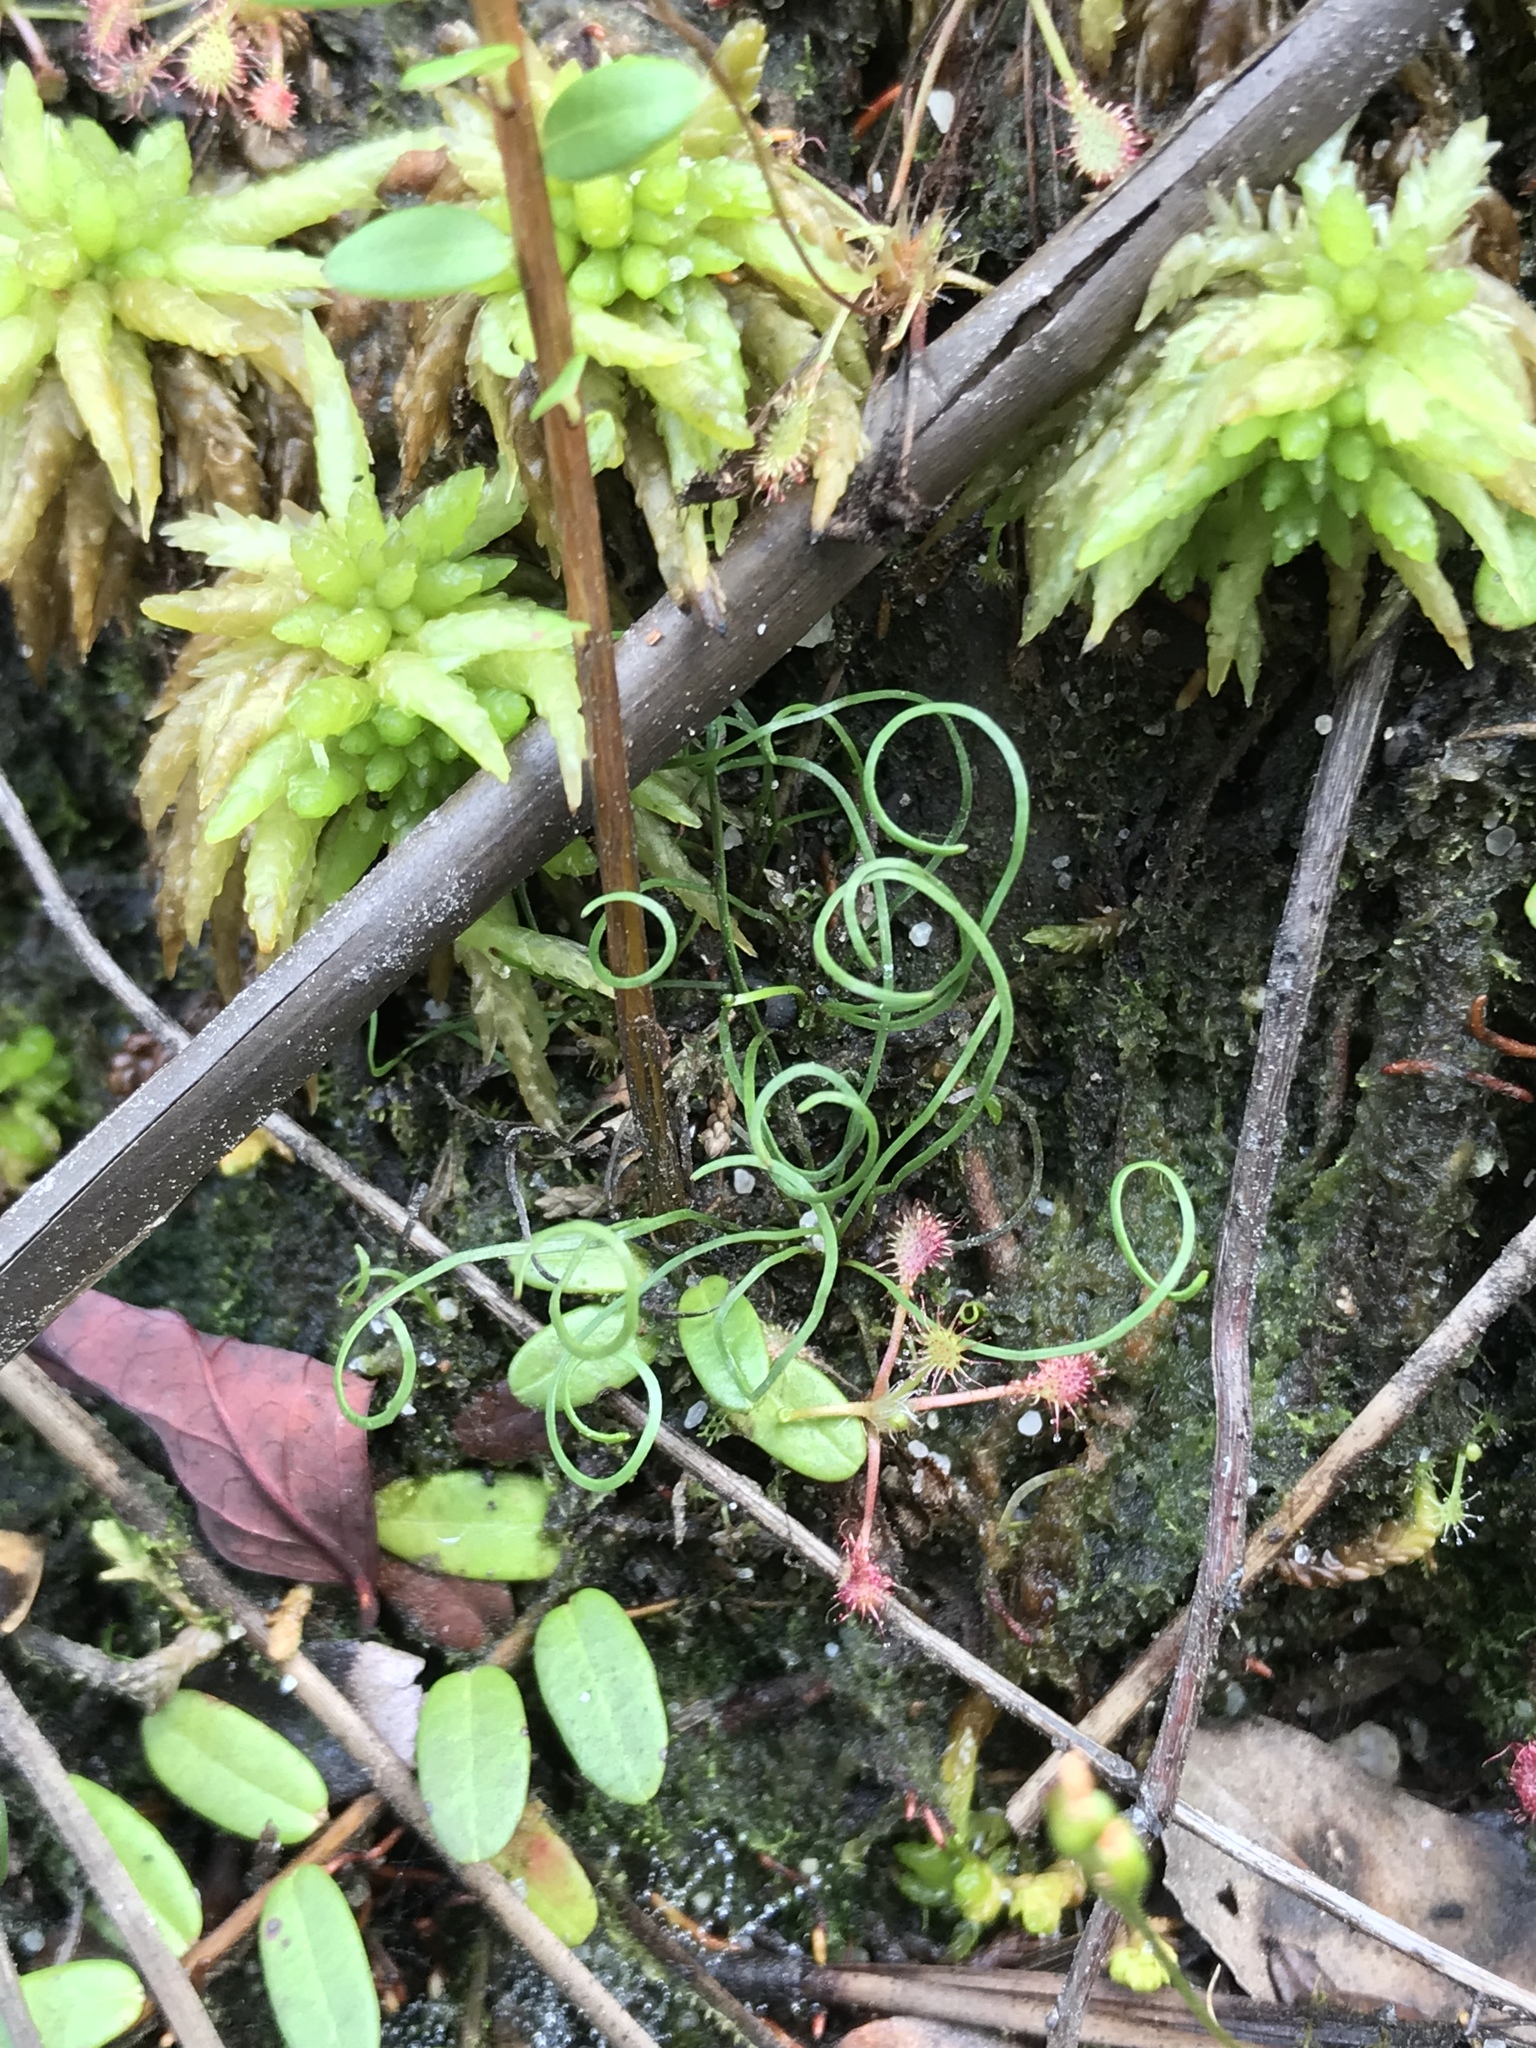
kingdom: Plantae
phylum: Tracheophyta
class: Polypodiopsida
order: Schizaeales
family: Schizaeaceae
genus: Schizaea
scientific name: Schizaea pusilla
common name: Curly-grass fern
